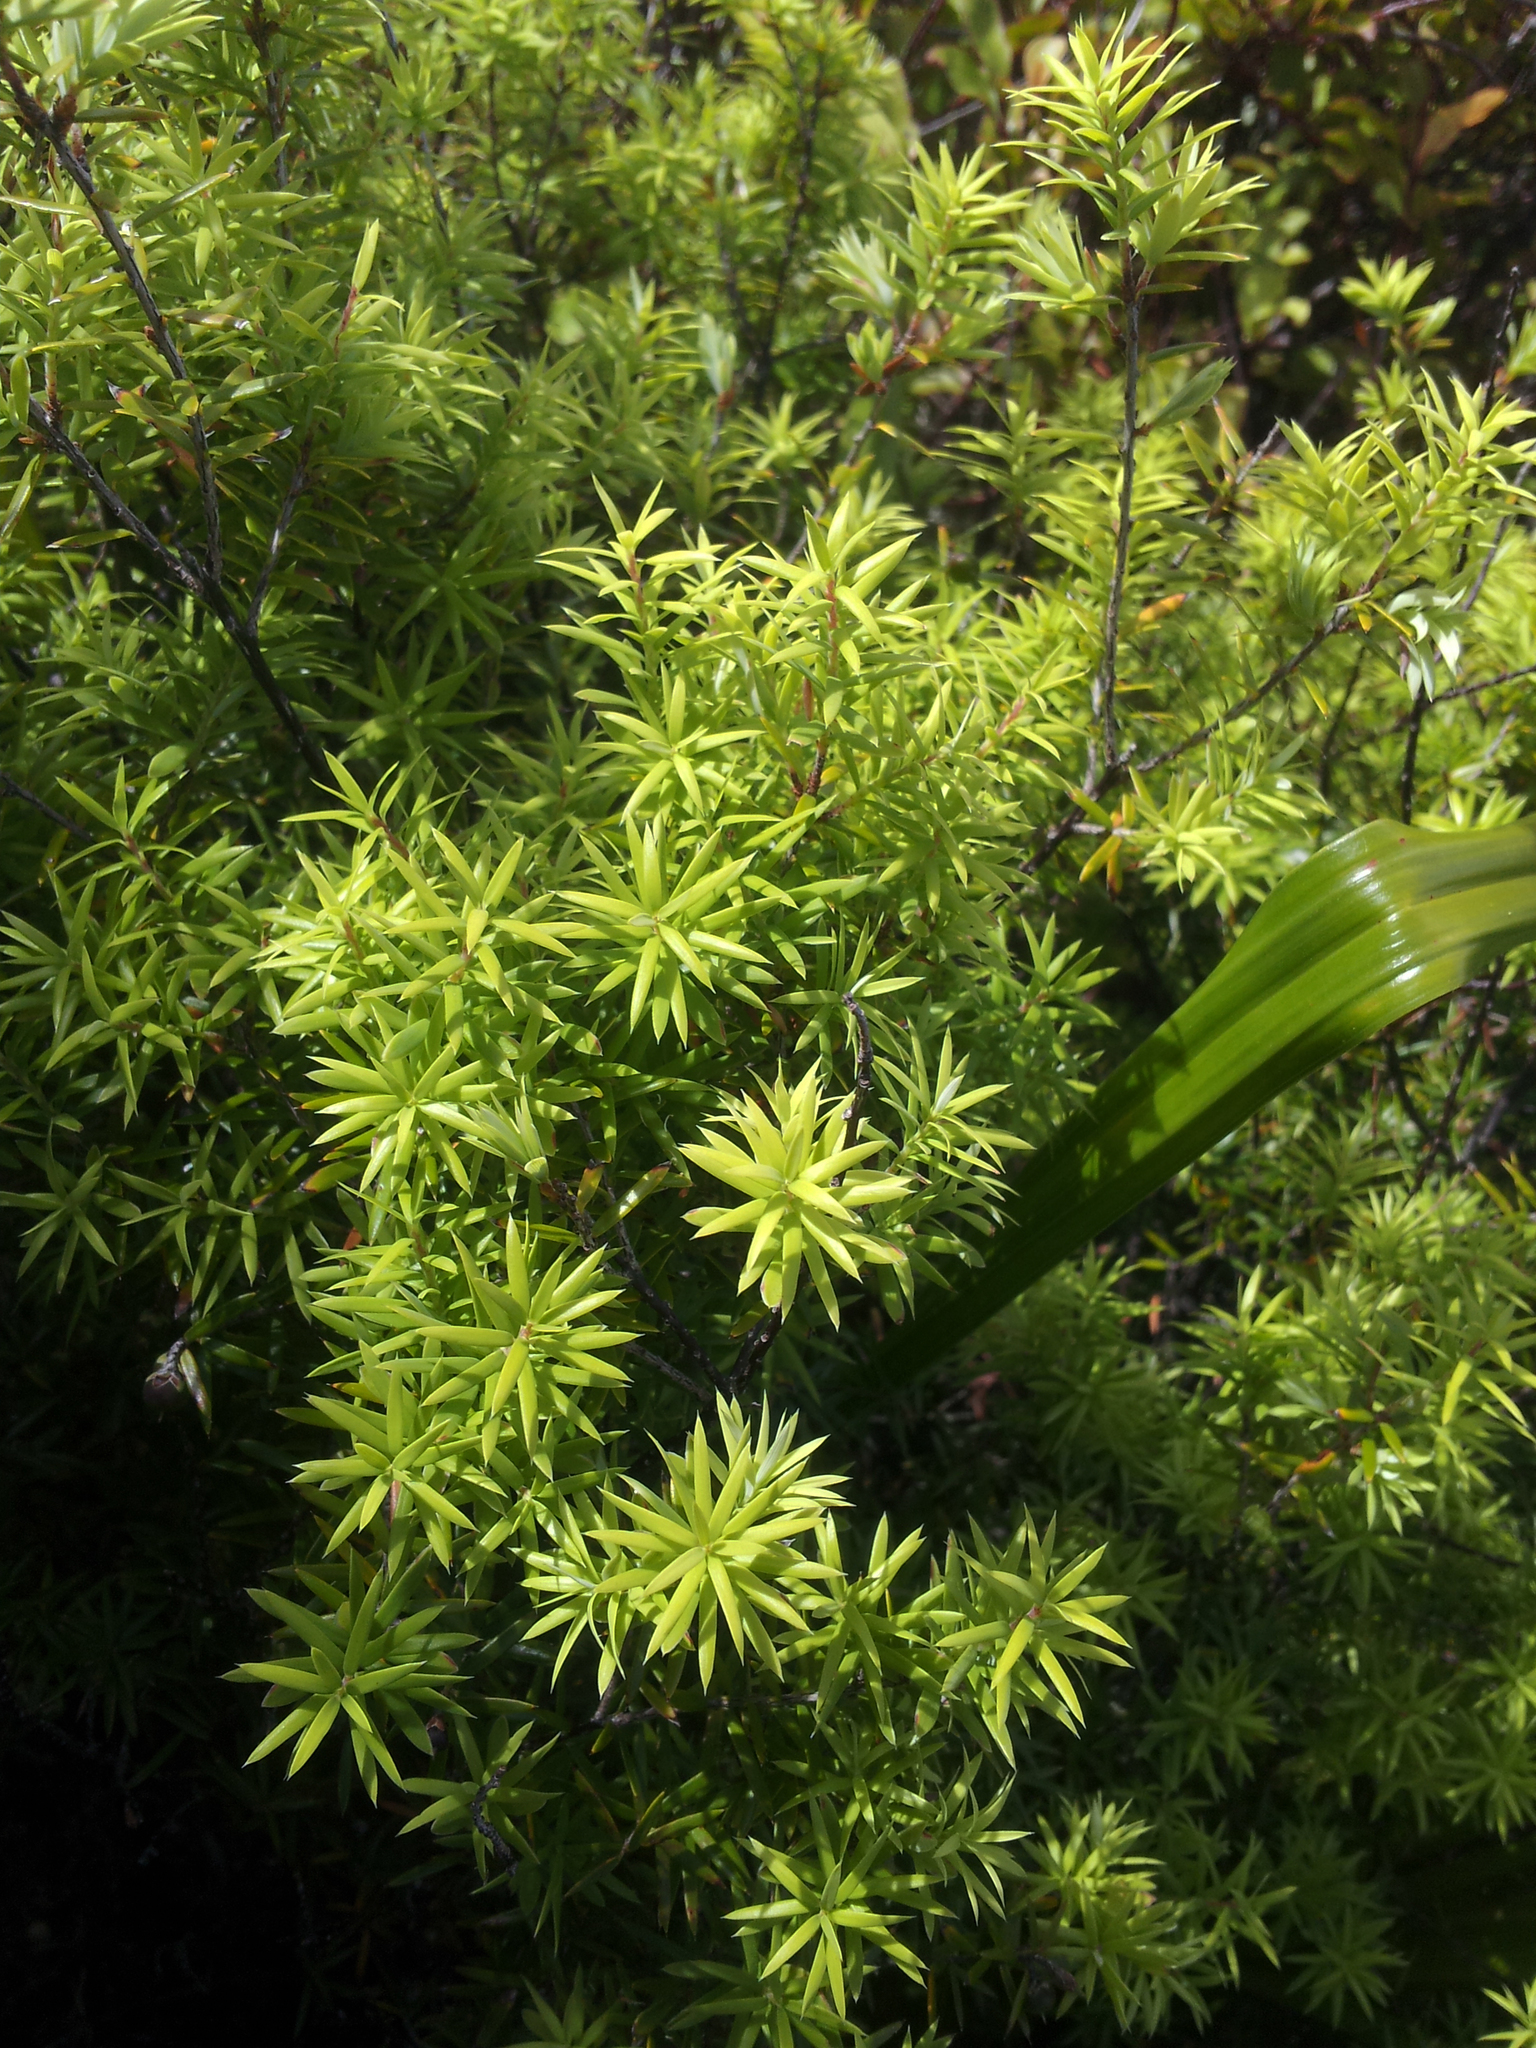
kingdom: Plantae
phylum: Tracheophyta
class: Magnoliopsida
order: Ericales
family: Ericaceae
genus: Leptecophylla
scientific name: Leptecophylla juniperina
